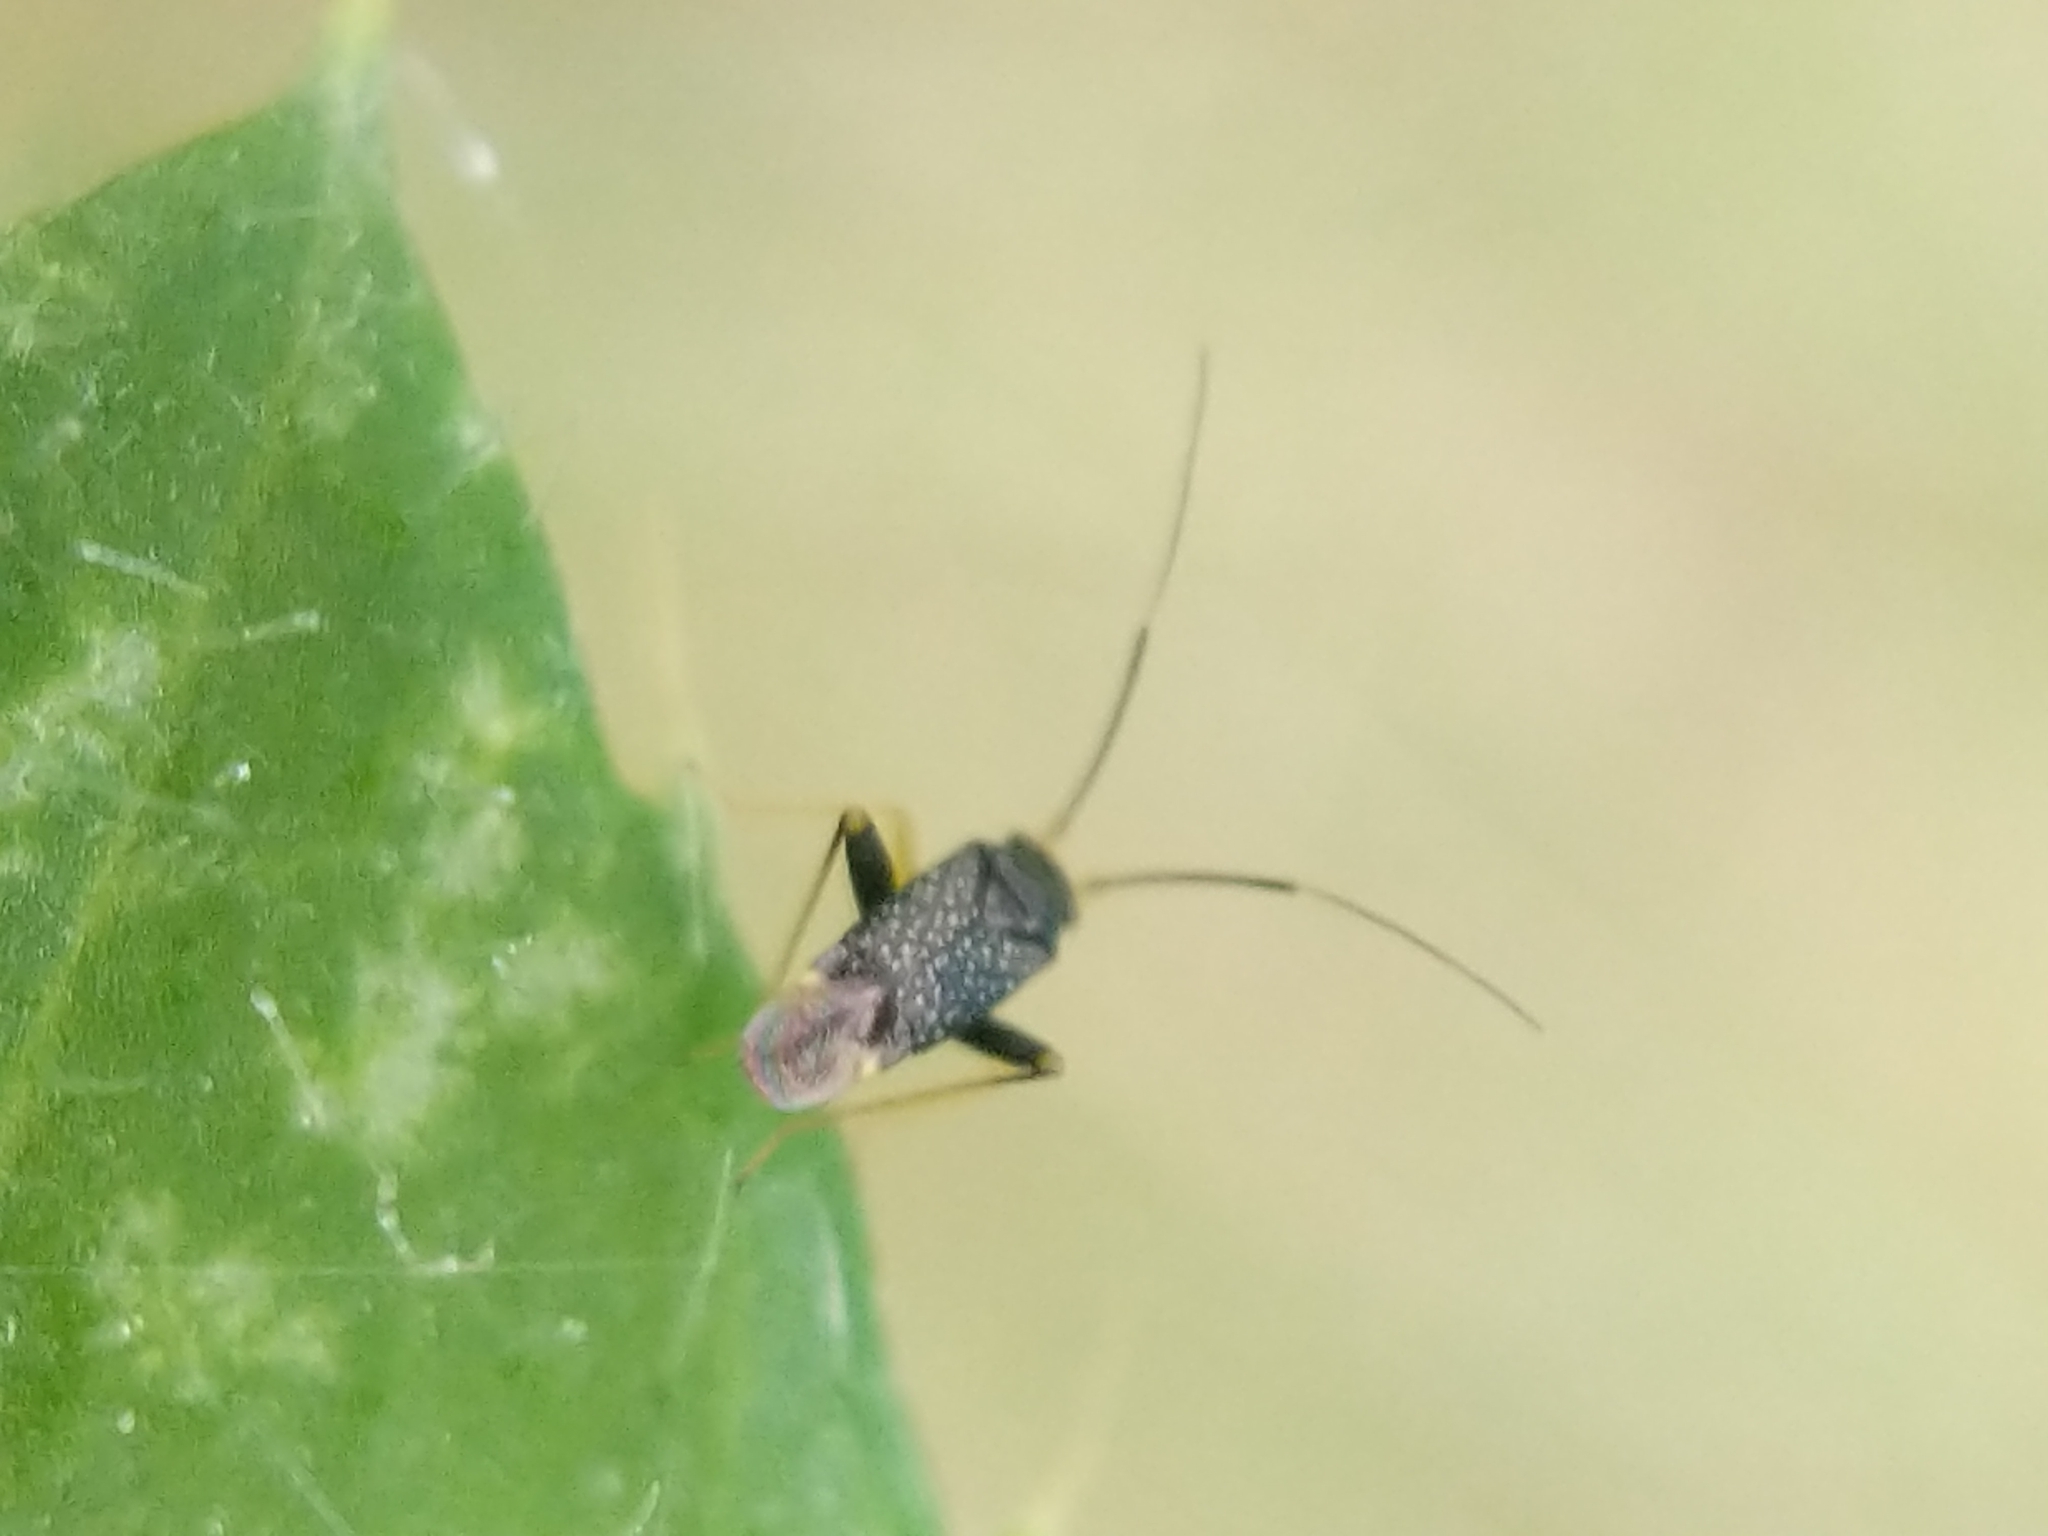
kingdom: Animalia
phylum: Arthropoda
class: Insecta
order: Hemiptera
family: Miridae
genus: Microtechnites
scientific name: Microtechnites bractatus
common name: Garden fleahopper
